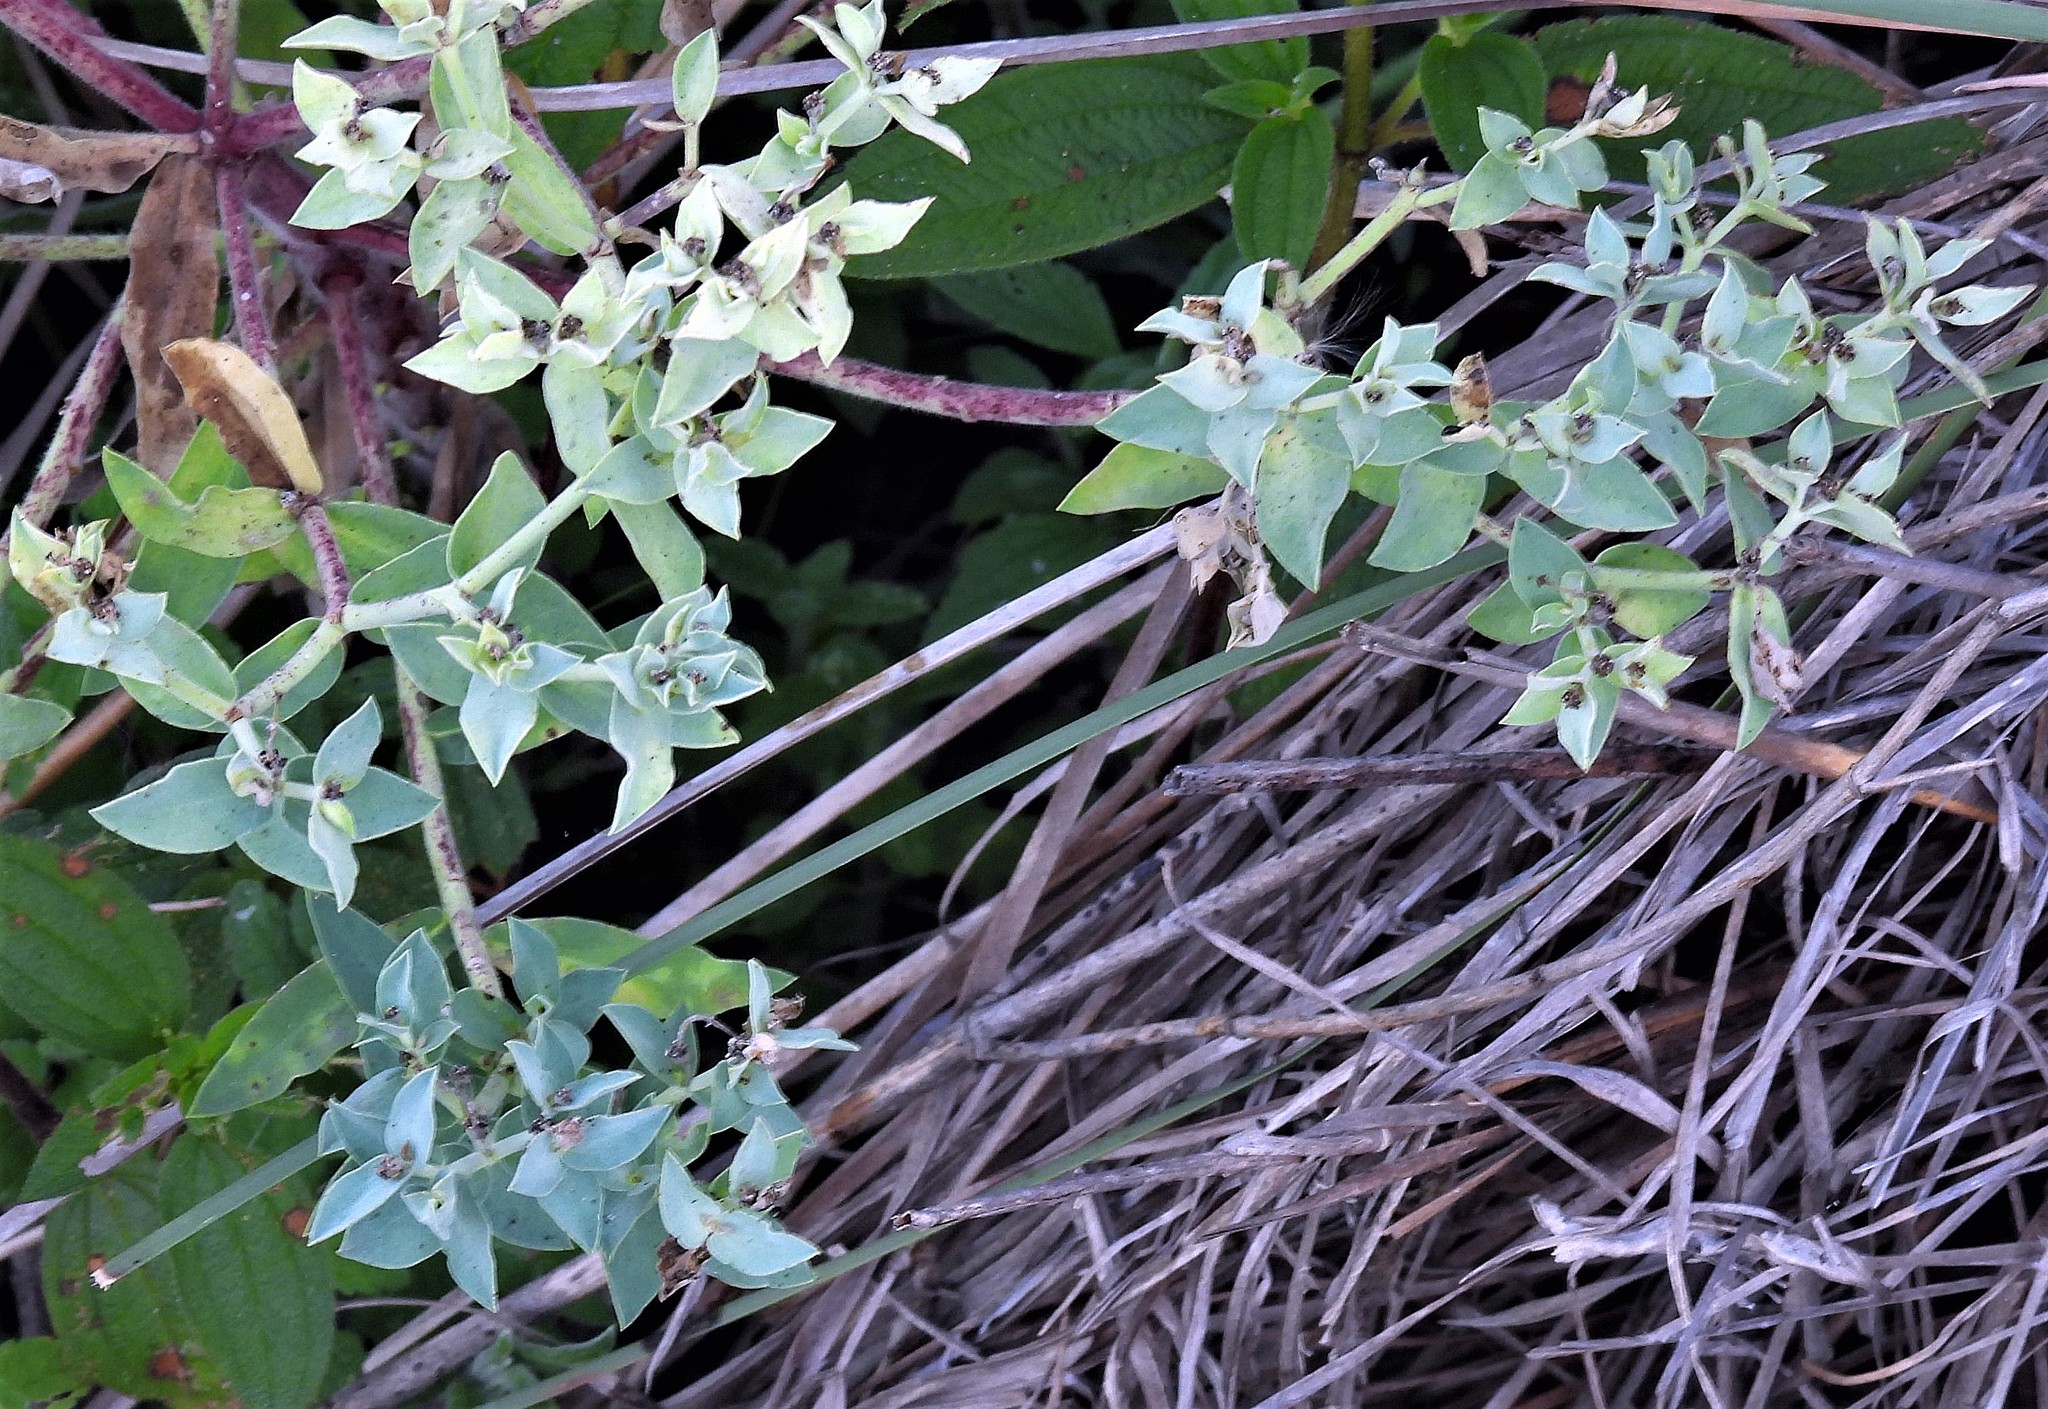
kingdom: Plantae
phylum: Tracheophyta
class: Magnoliopsida
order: Malpighiales
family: Euphorbiaceae
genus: Euphorbia
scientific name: Euphorbia portulacoides
